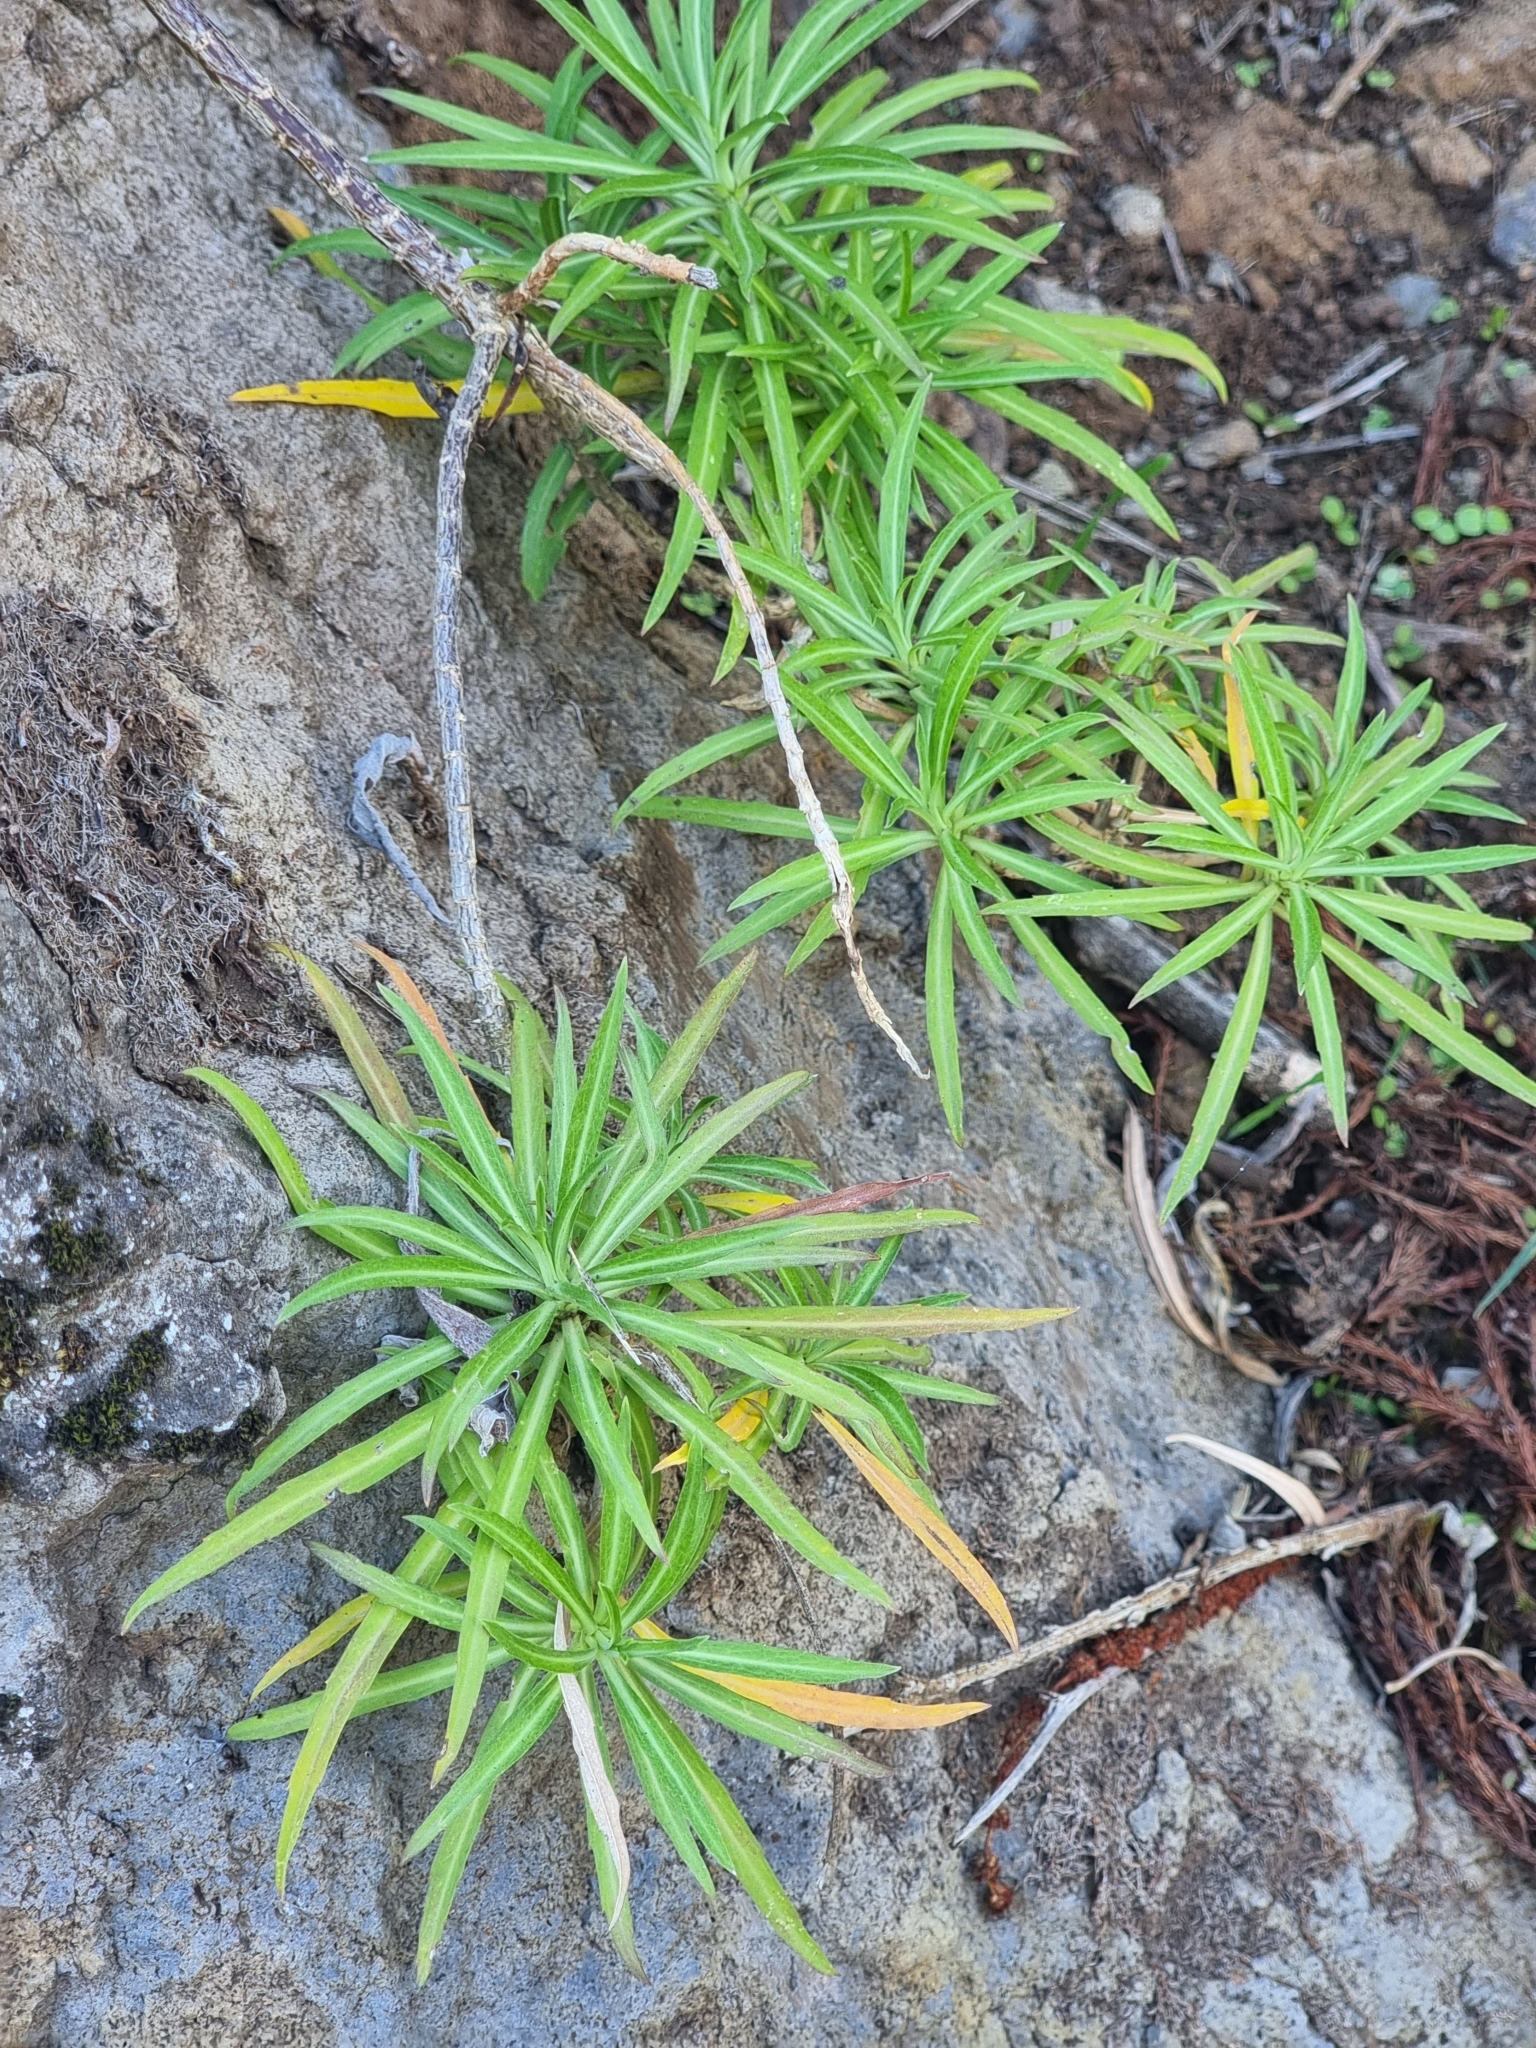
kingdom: Plantae
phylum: Tracheophyta
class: Magnoliopsida
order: Brassicales
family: Brassicaceae
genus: Erysimum
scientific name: Erysimum bicolor
